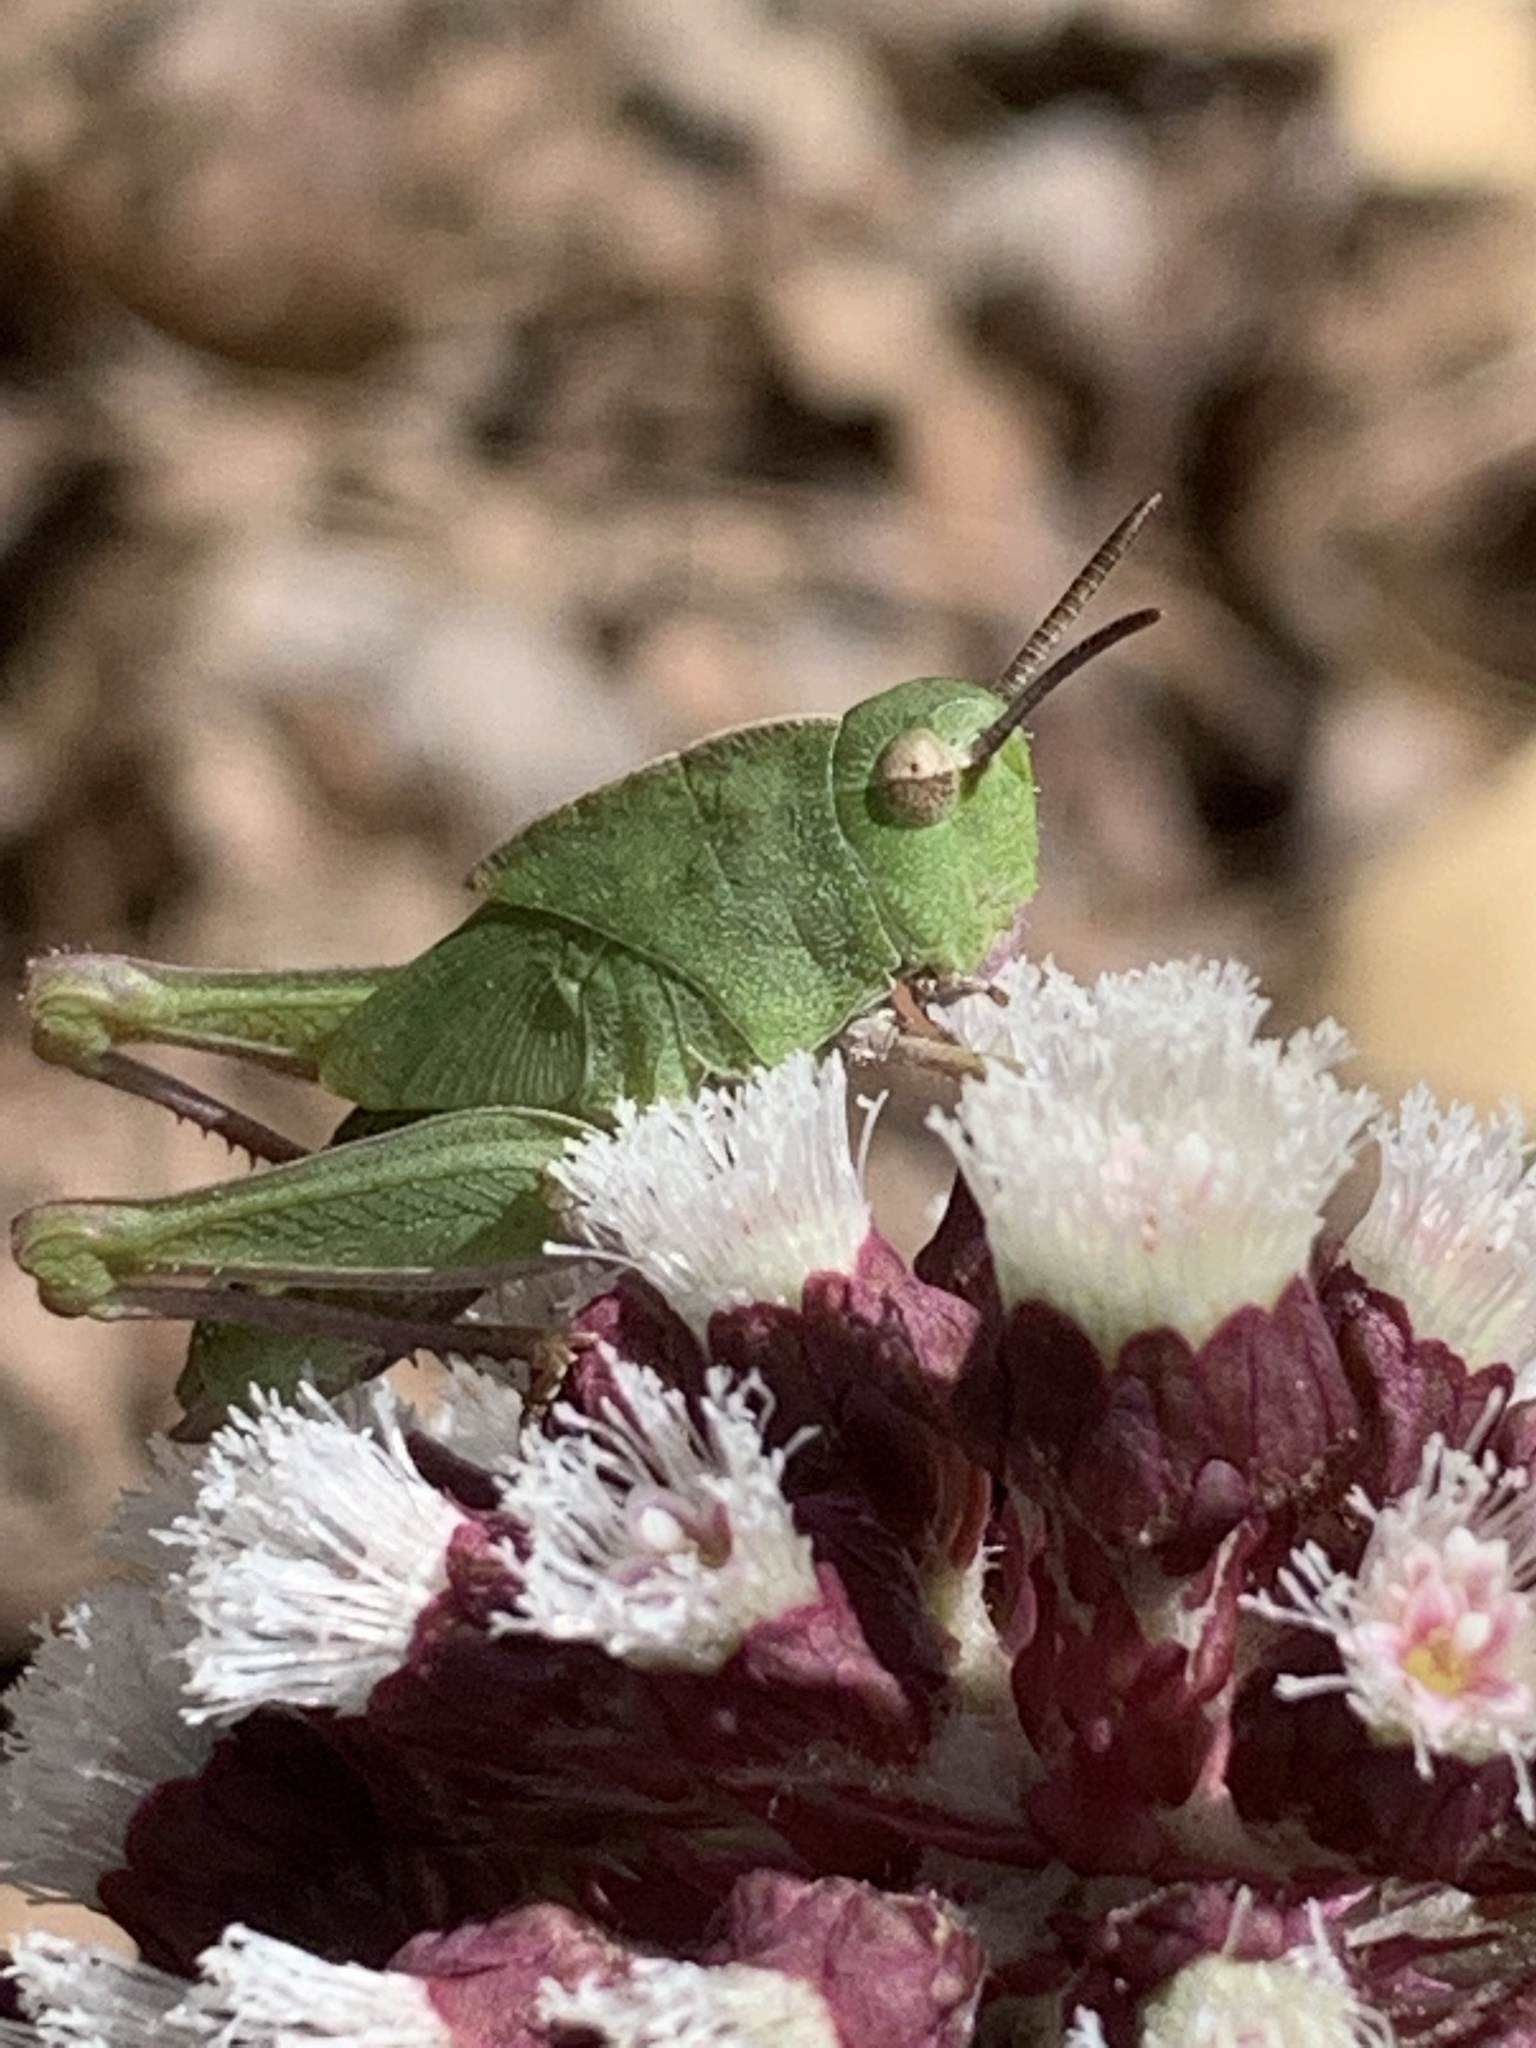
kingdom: Animalia
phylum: Arthropoda
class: Insecta
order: Orthoptera
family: Acrididae
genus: Chortophaga
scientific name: Chortophaga viridifasciata
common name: Green-striped grasshopper
